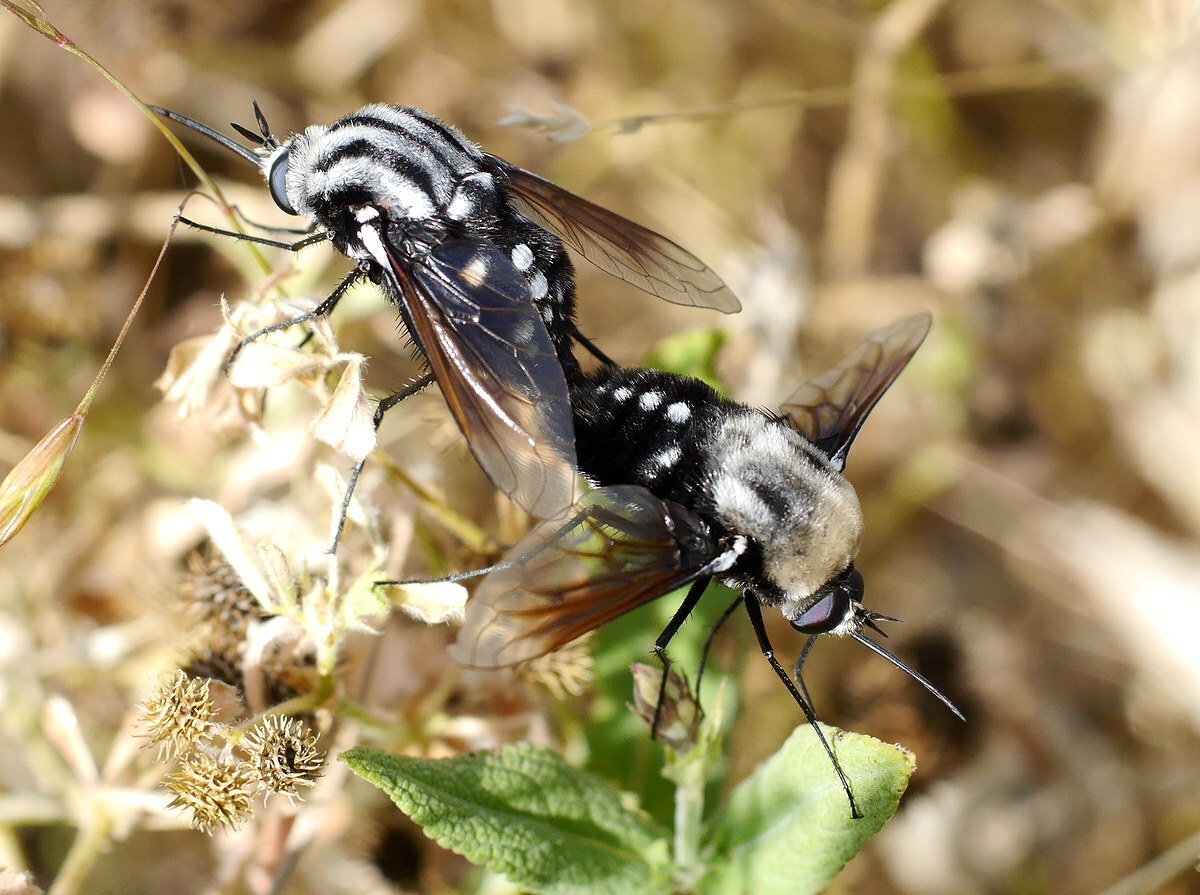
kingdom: Animalia
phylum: Arthropoda
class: Insecta
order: Diptera
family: Bombyliidae
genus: Bombomyia
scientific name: Bombomyia vertebralis
